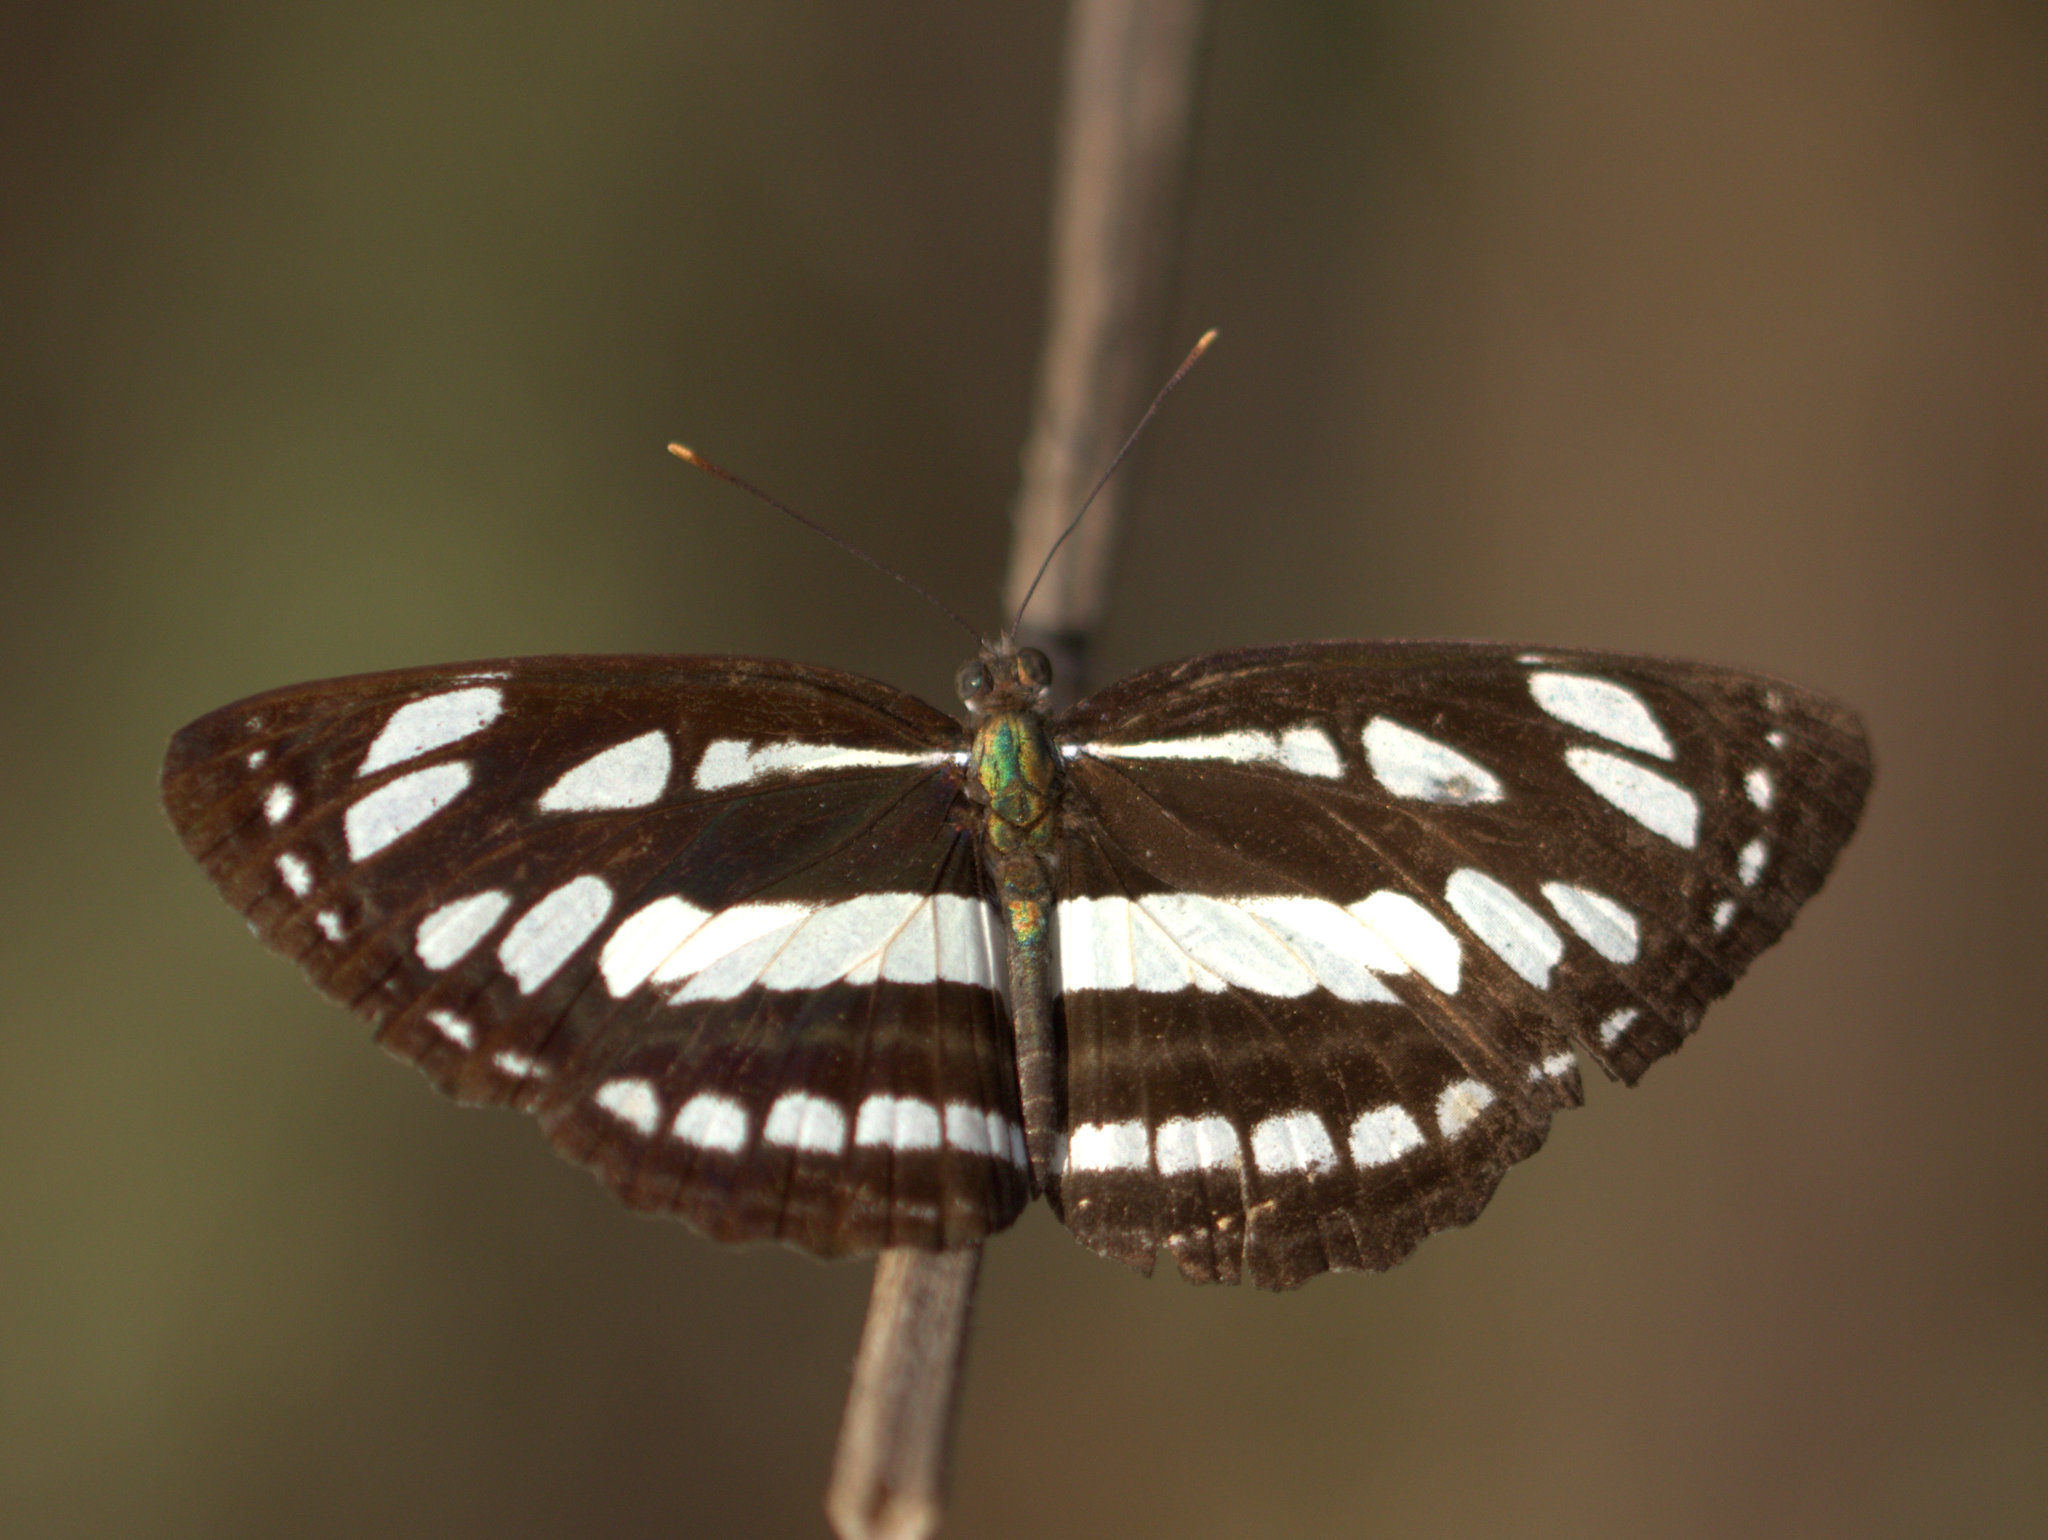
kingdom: Animalia
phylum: Arthropoda
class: Insecta
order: Lepidoptera
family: Nymphalidae
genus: Neptis
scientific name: Neptis hylas
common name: Common sailer
